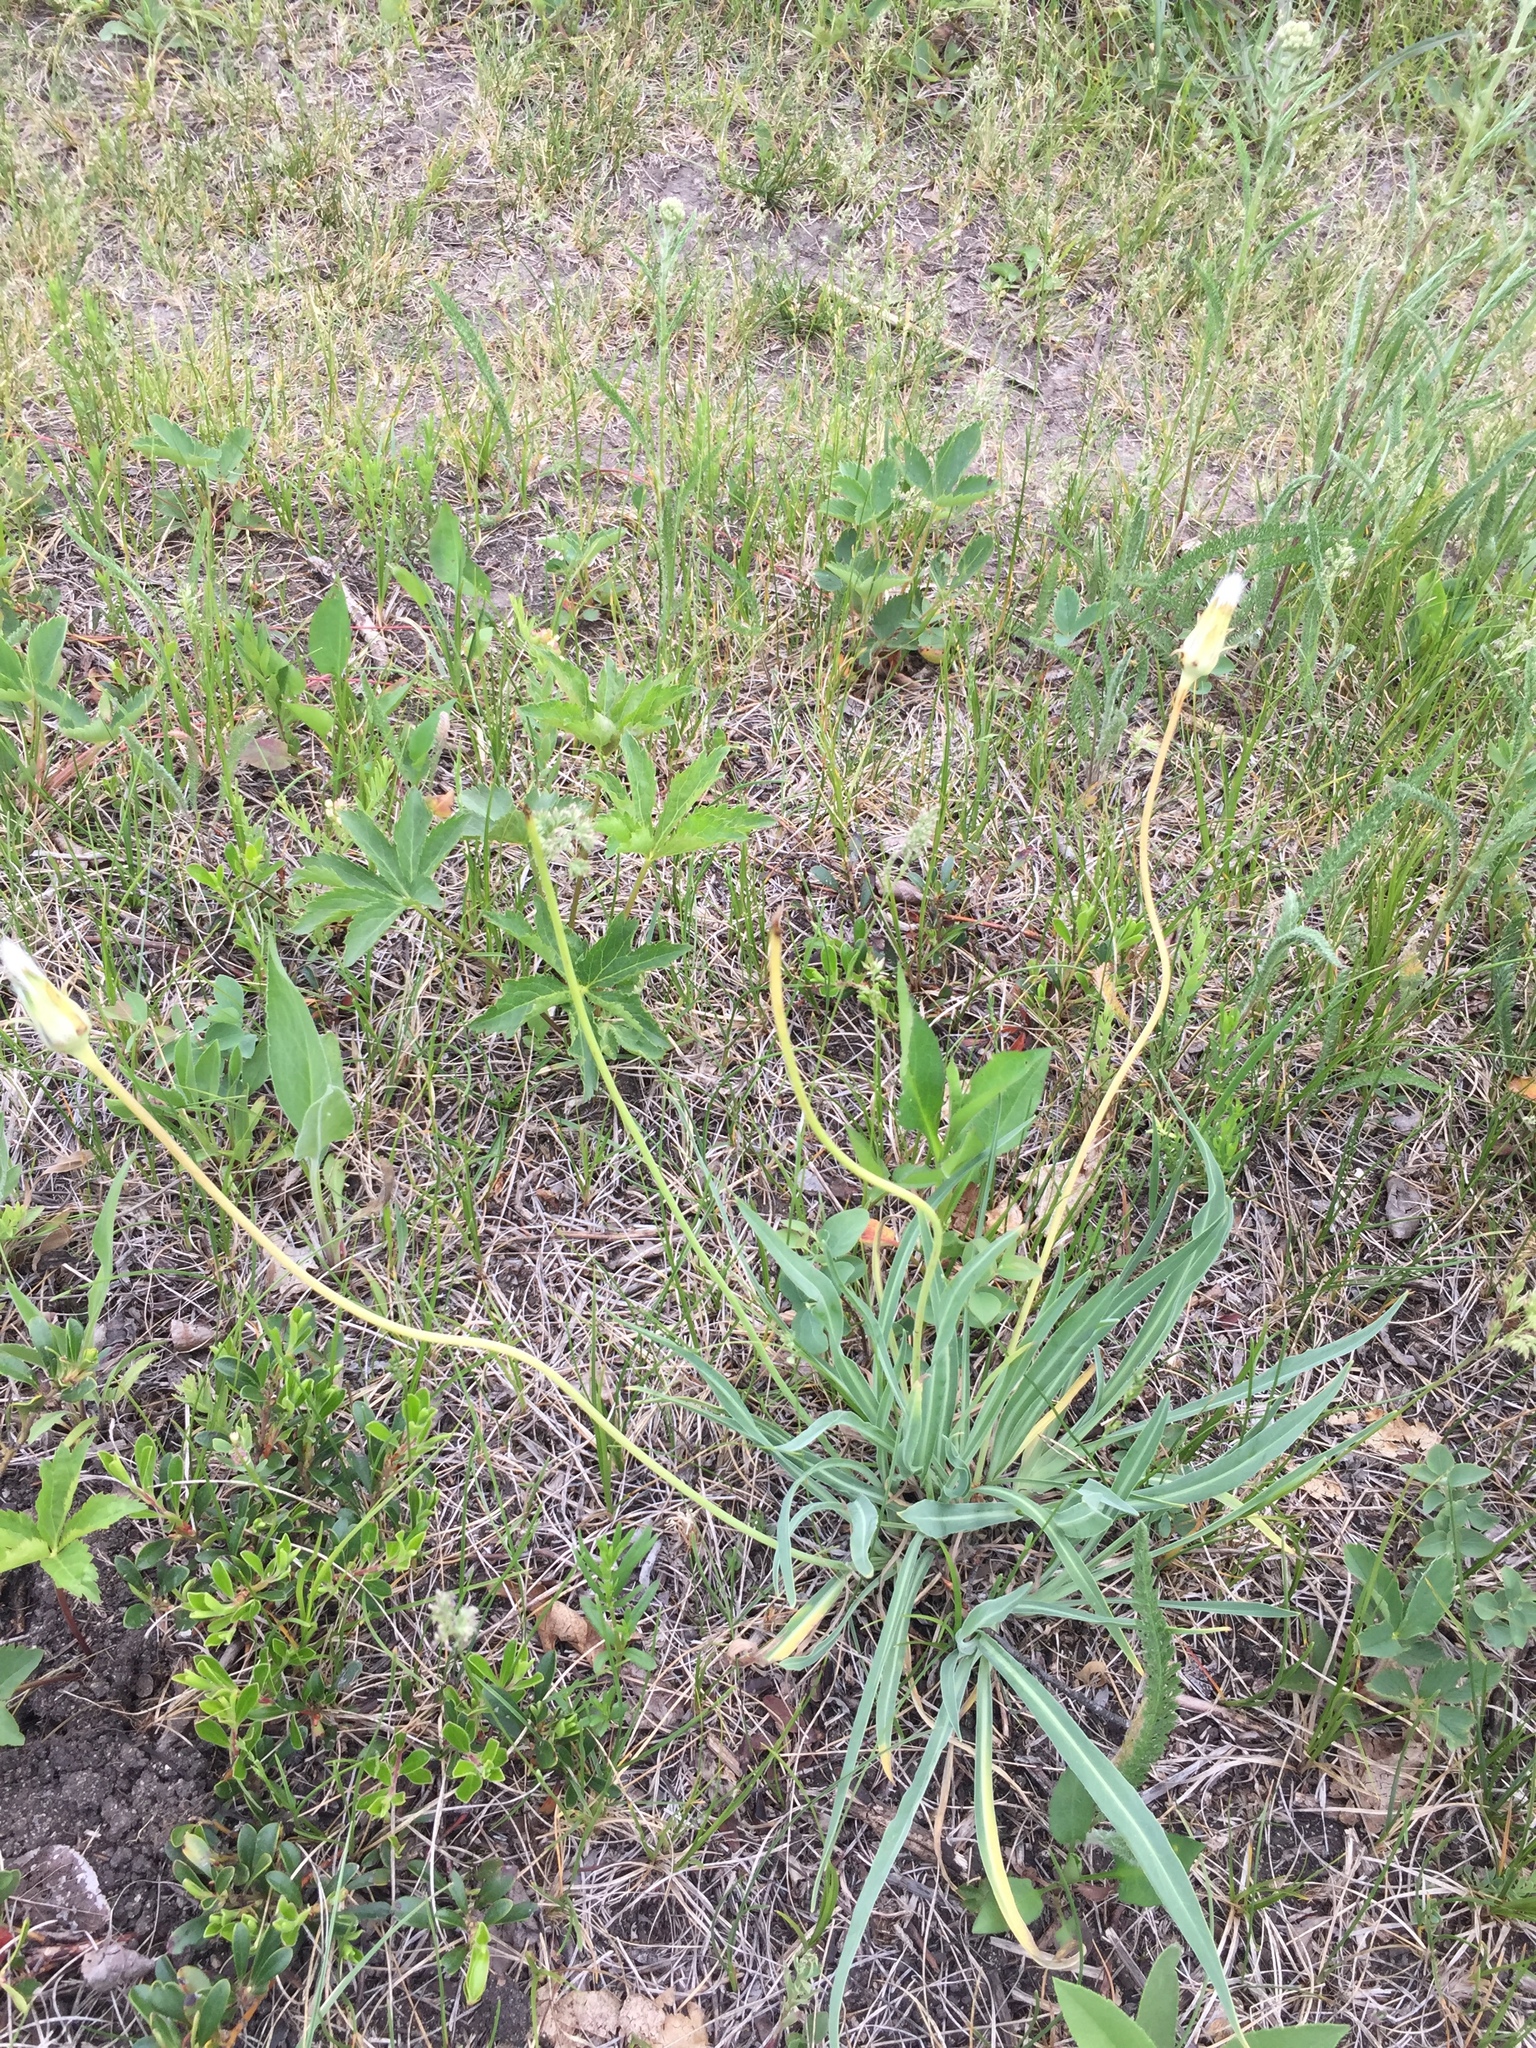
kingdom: Plantae
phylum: Tracheophyta
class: Magnoliopsida
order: Asterales
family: Asteraceae
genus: Agoseris
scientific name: Agoseris glauca
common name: Prairie agoseris
